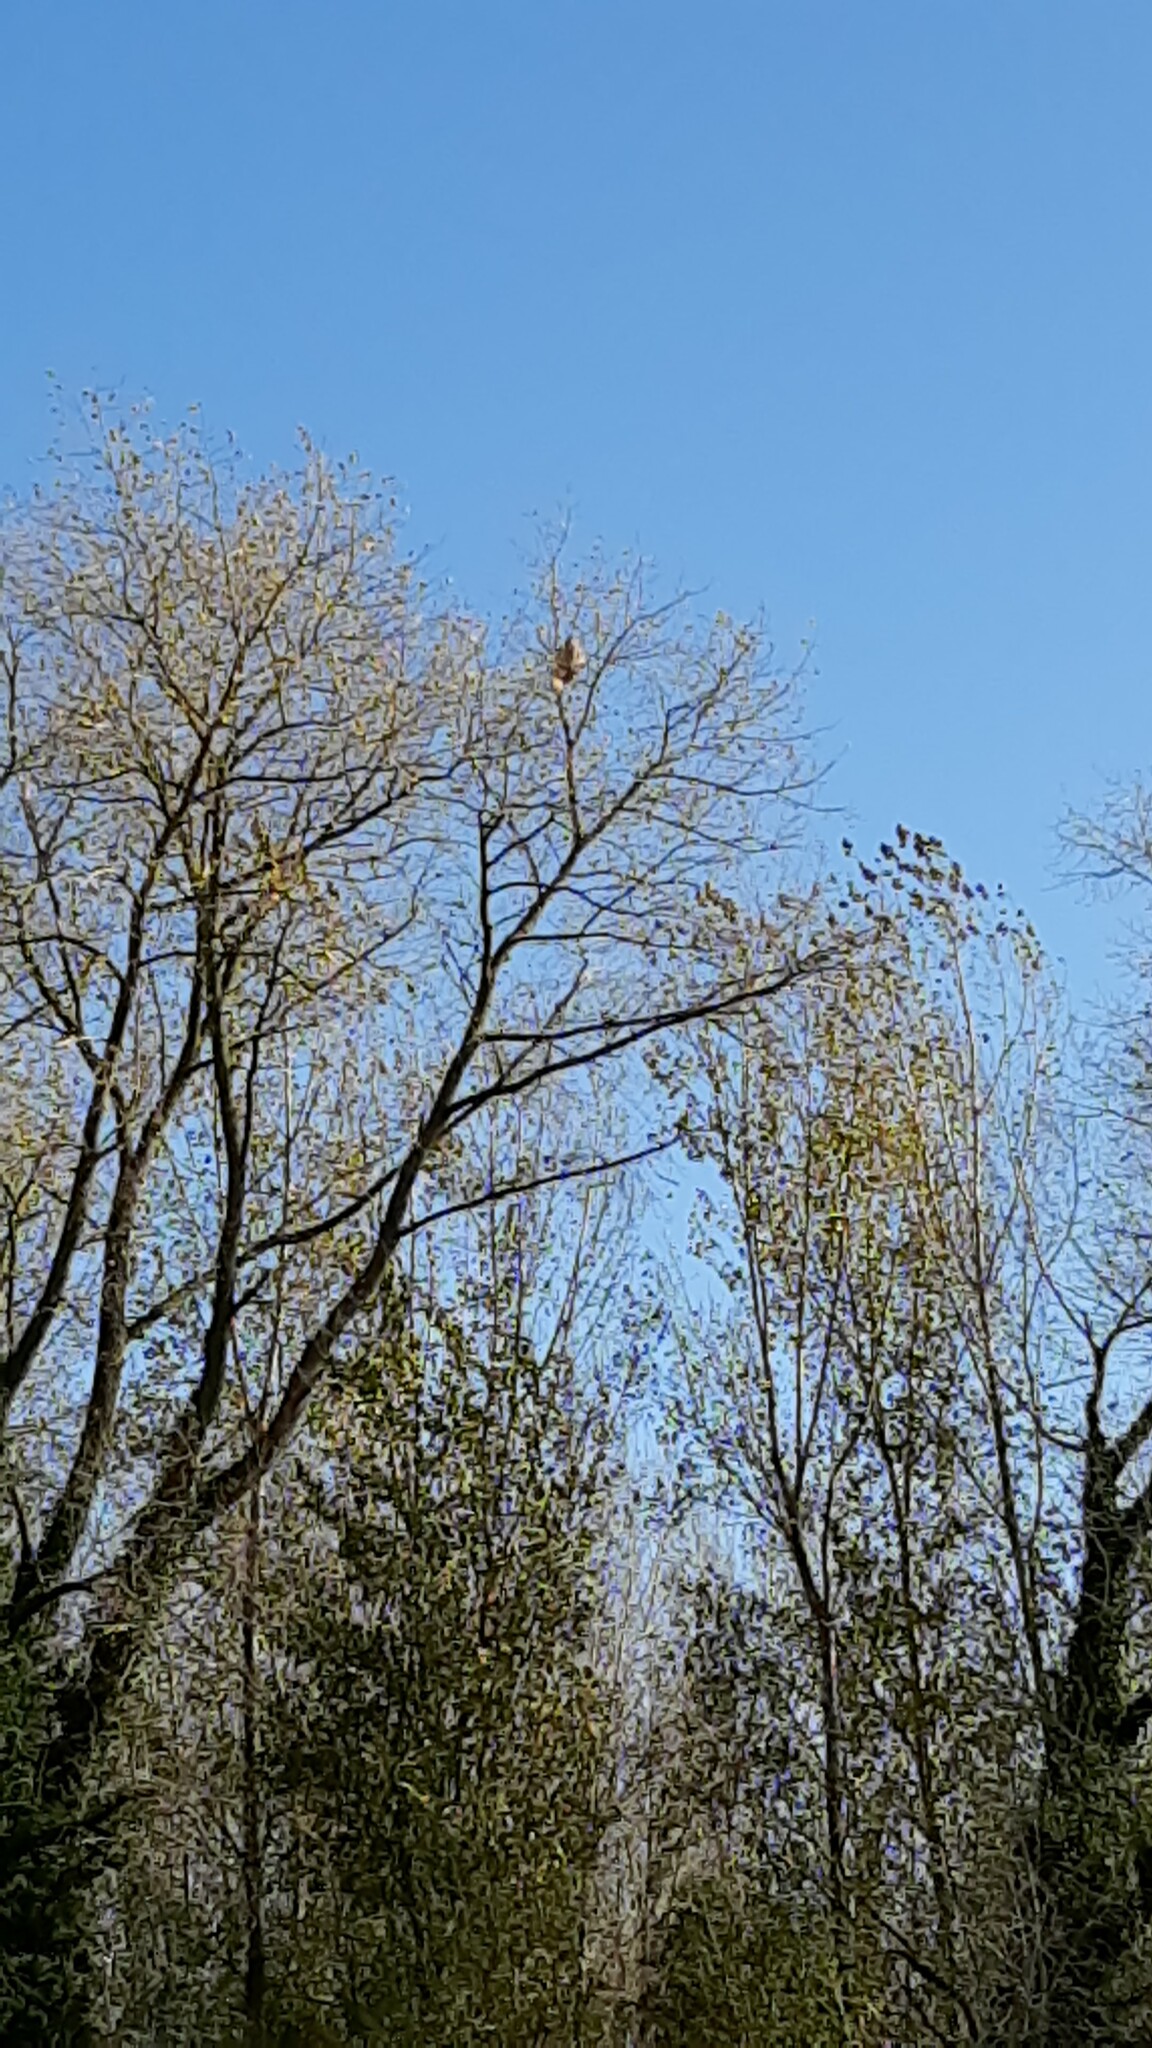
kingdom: Animalia
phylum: Arthropoda
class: Insecta
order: Hymenoptera
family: Vespidae
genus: Vespa
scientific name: Vespa velutina
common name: Asian hornet
